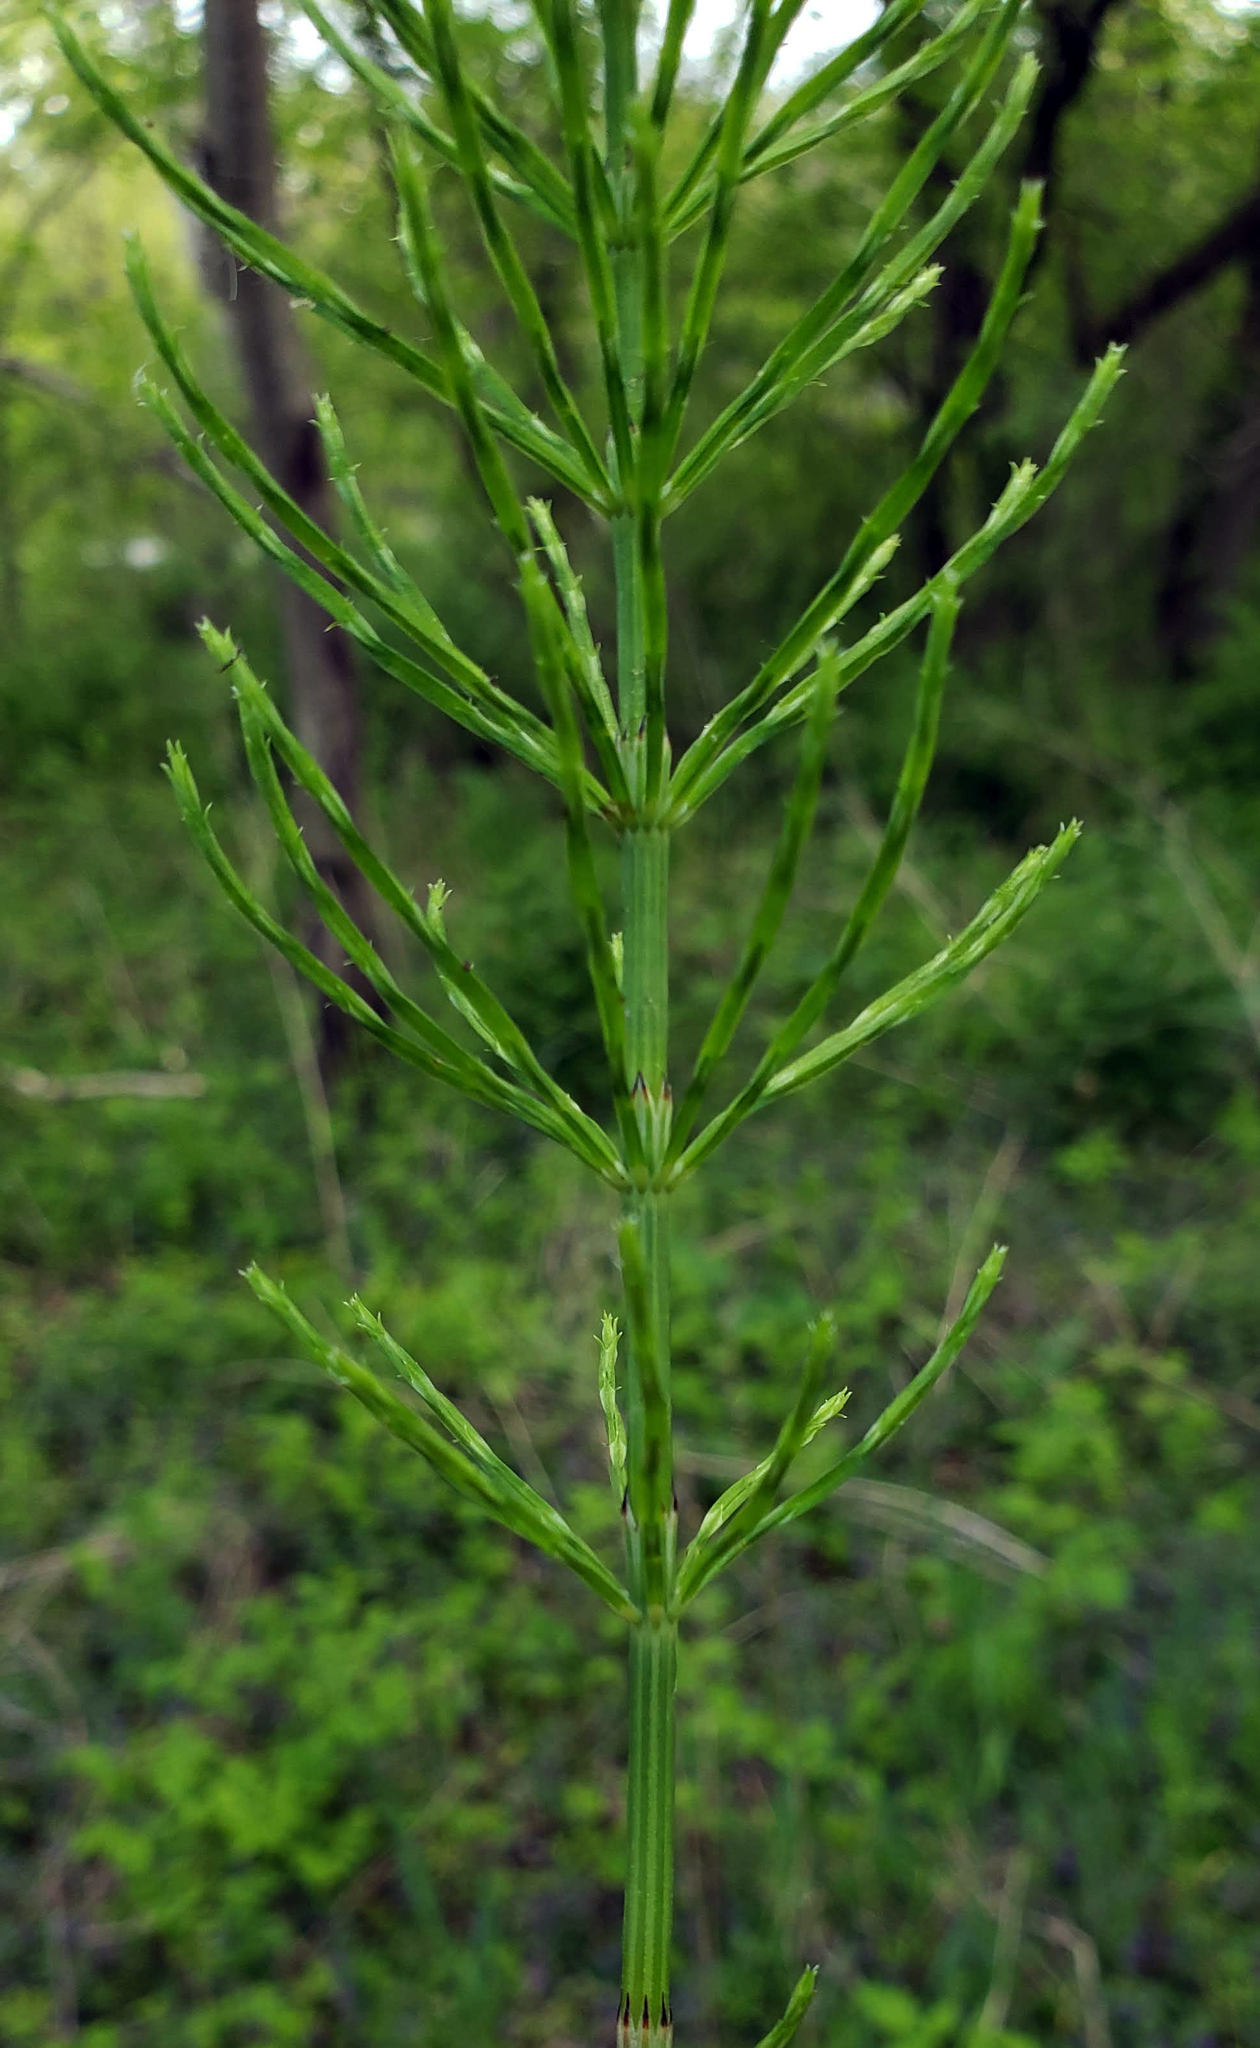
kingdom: Plantae
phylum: Tracheophyta
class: Polypodiopsida
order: Equisetales
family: Equisetaceae
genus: Equisetum
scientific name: Equisetum arvense
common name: Field horsetail
